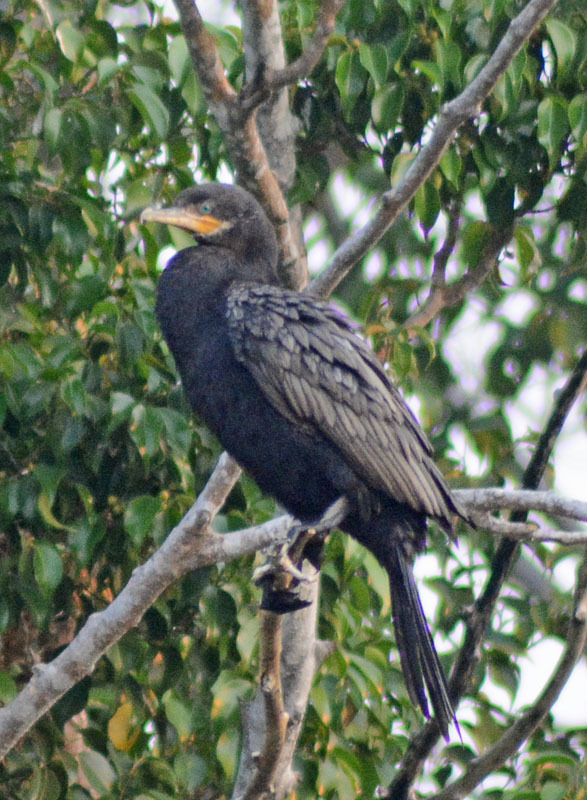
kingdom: Animalia
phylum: Chordata
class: Aves
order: Suliformes
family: Phalacrocoracidae
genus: Phalacrocorax
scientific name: Phalacrocorax brasilianus
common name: Neotropic cormorant
